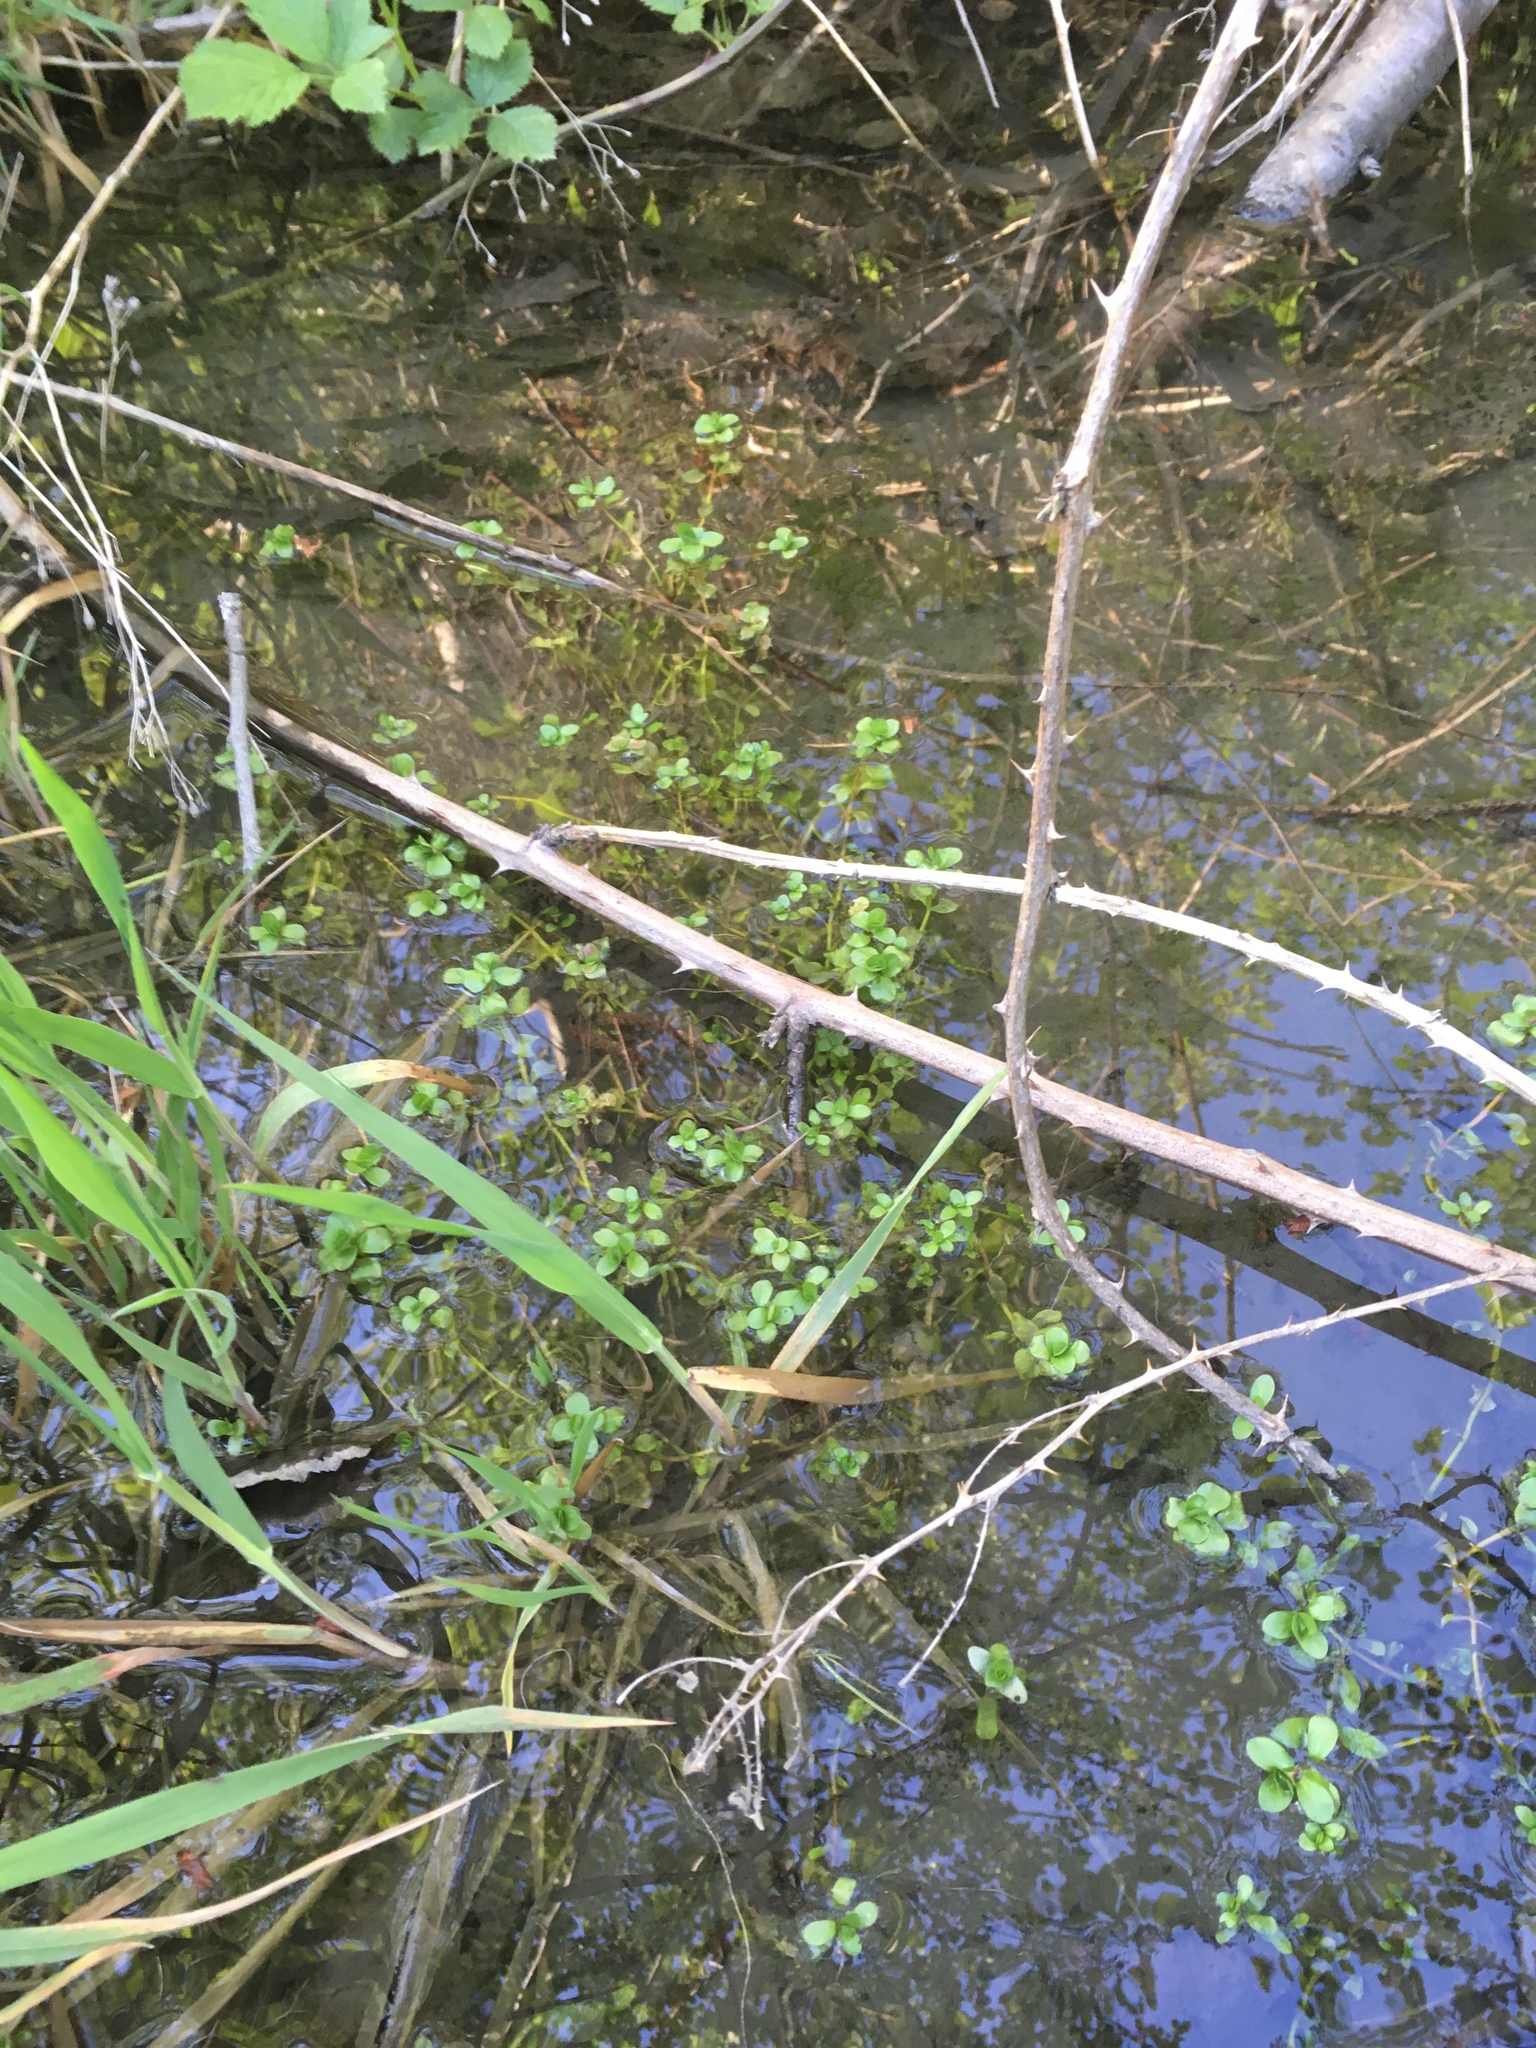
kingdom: Plantae
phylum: Tracheophyta
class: Magnoliopsida
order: Lamiales
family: Plantaginaceae
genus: Callitriche
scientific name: Callitriche stagnalis
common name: Common water-starwort
